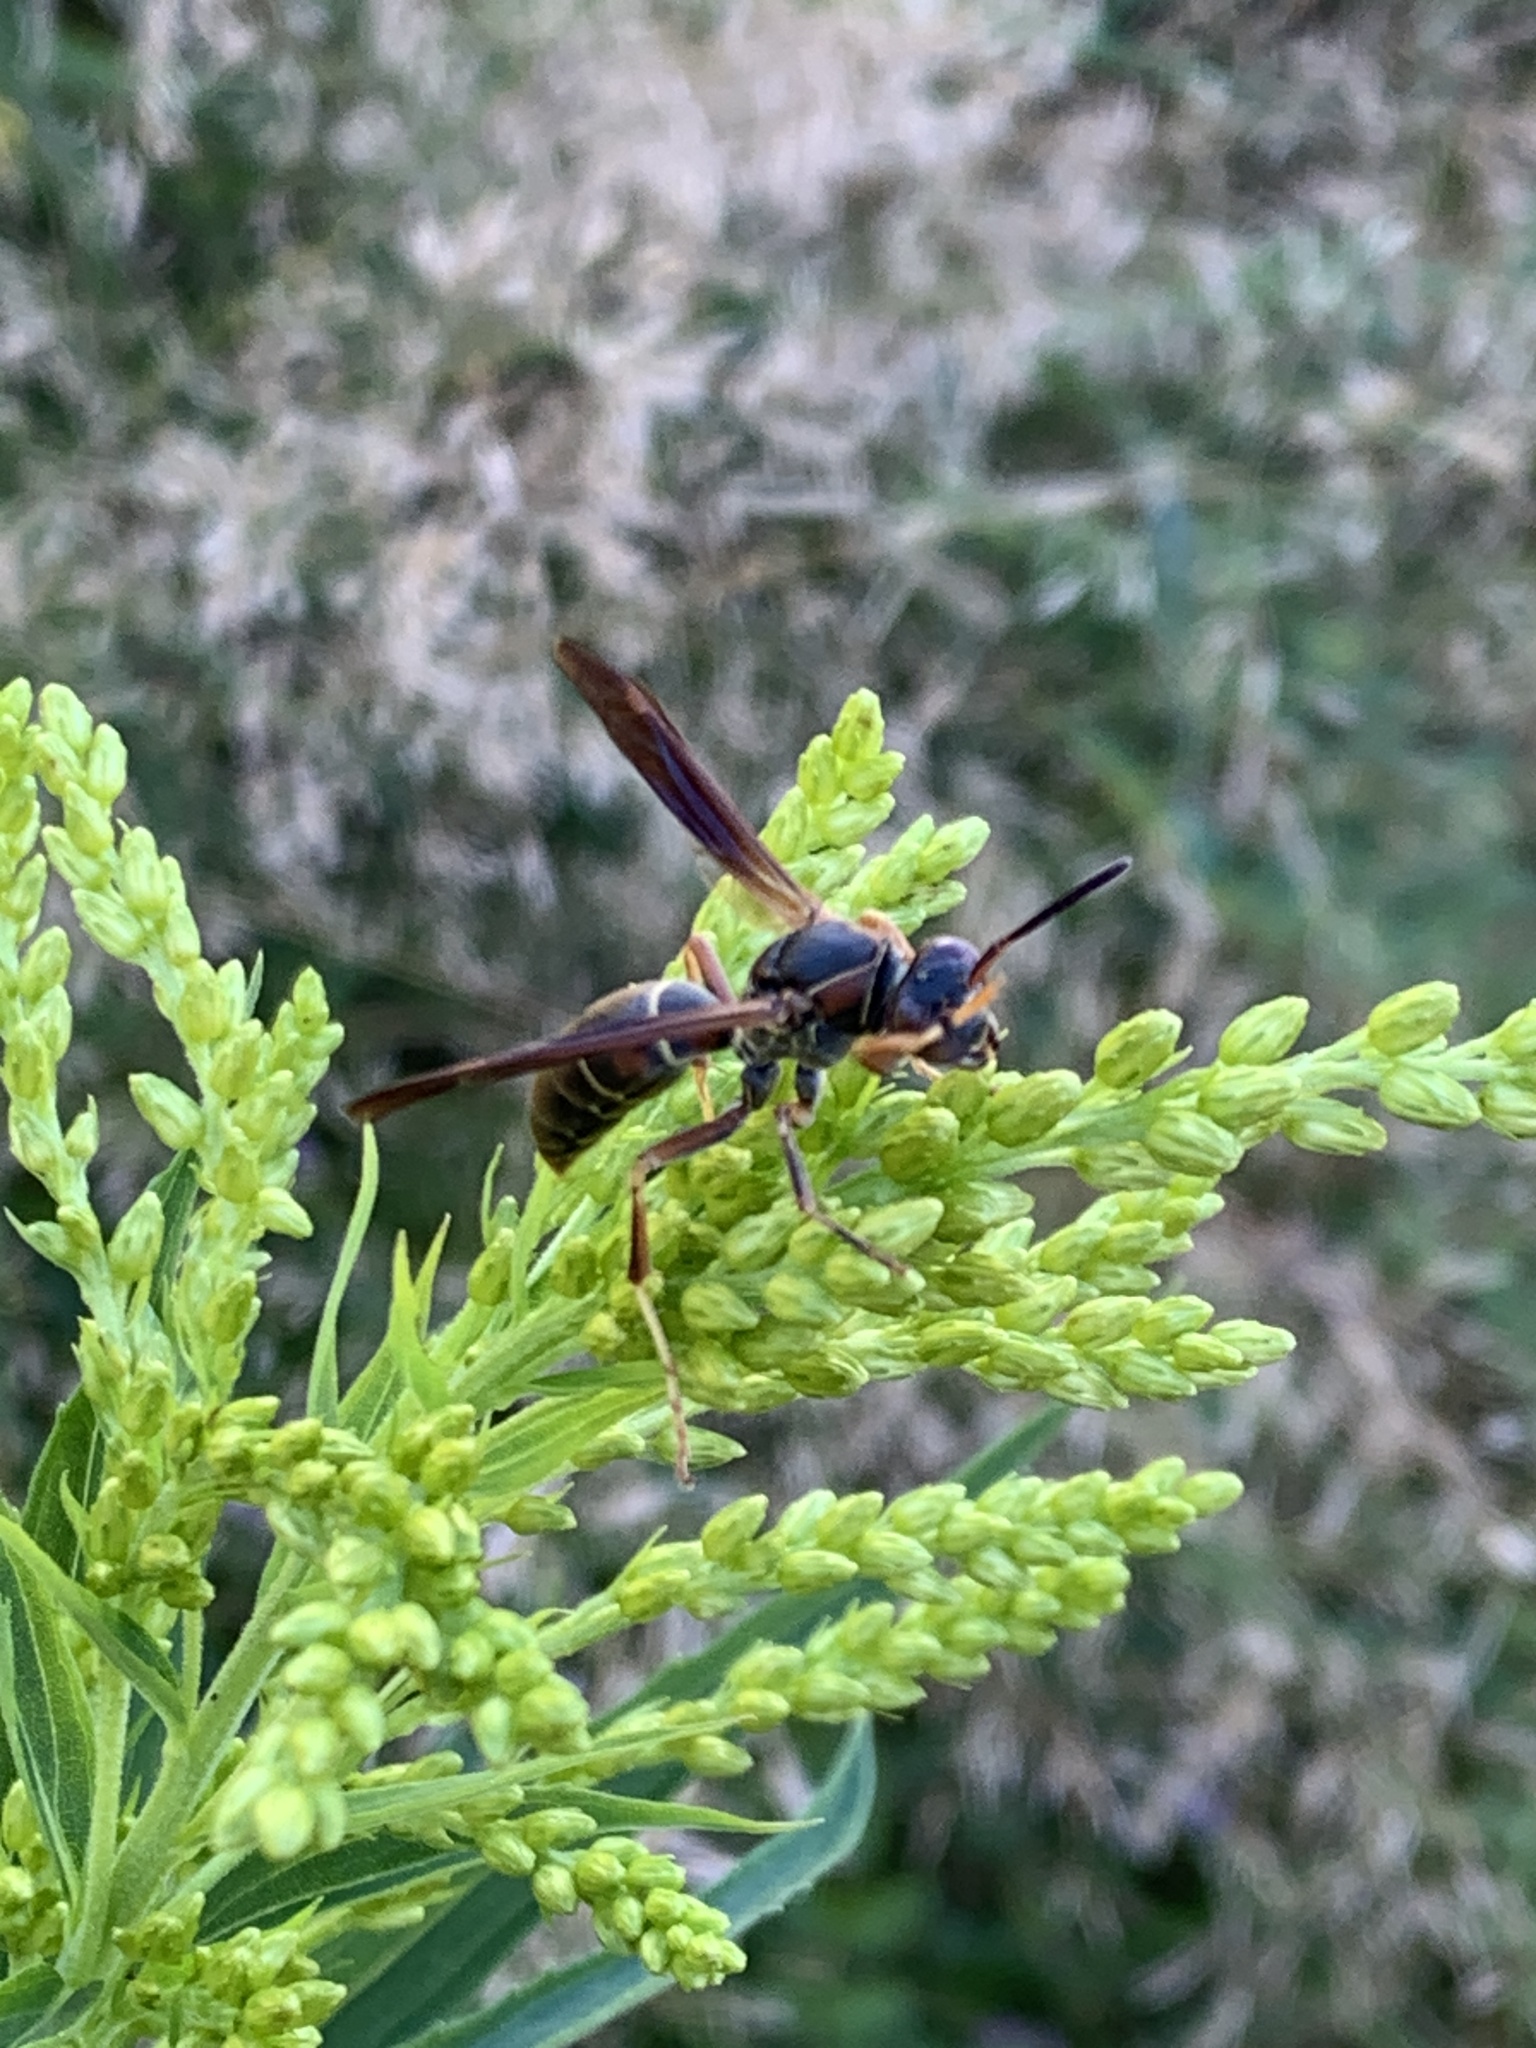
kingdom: Animalia
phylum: Arthropoda
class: Insecta
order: Hymenoptera
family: Eumenidae
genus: Polistes
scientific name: Polistes fuscatus
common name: Dark paper wasp
